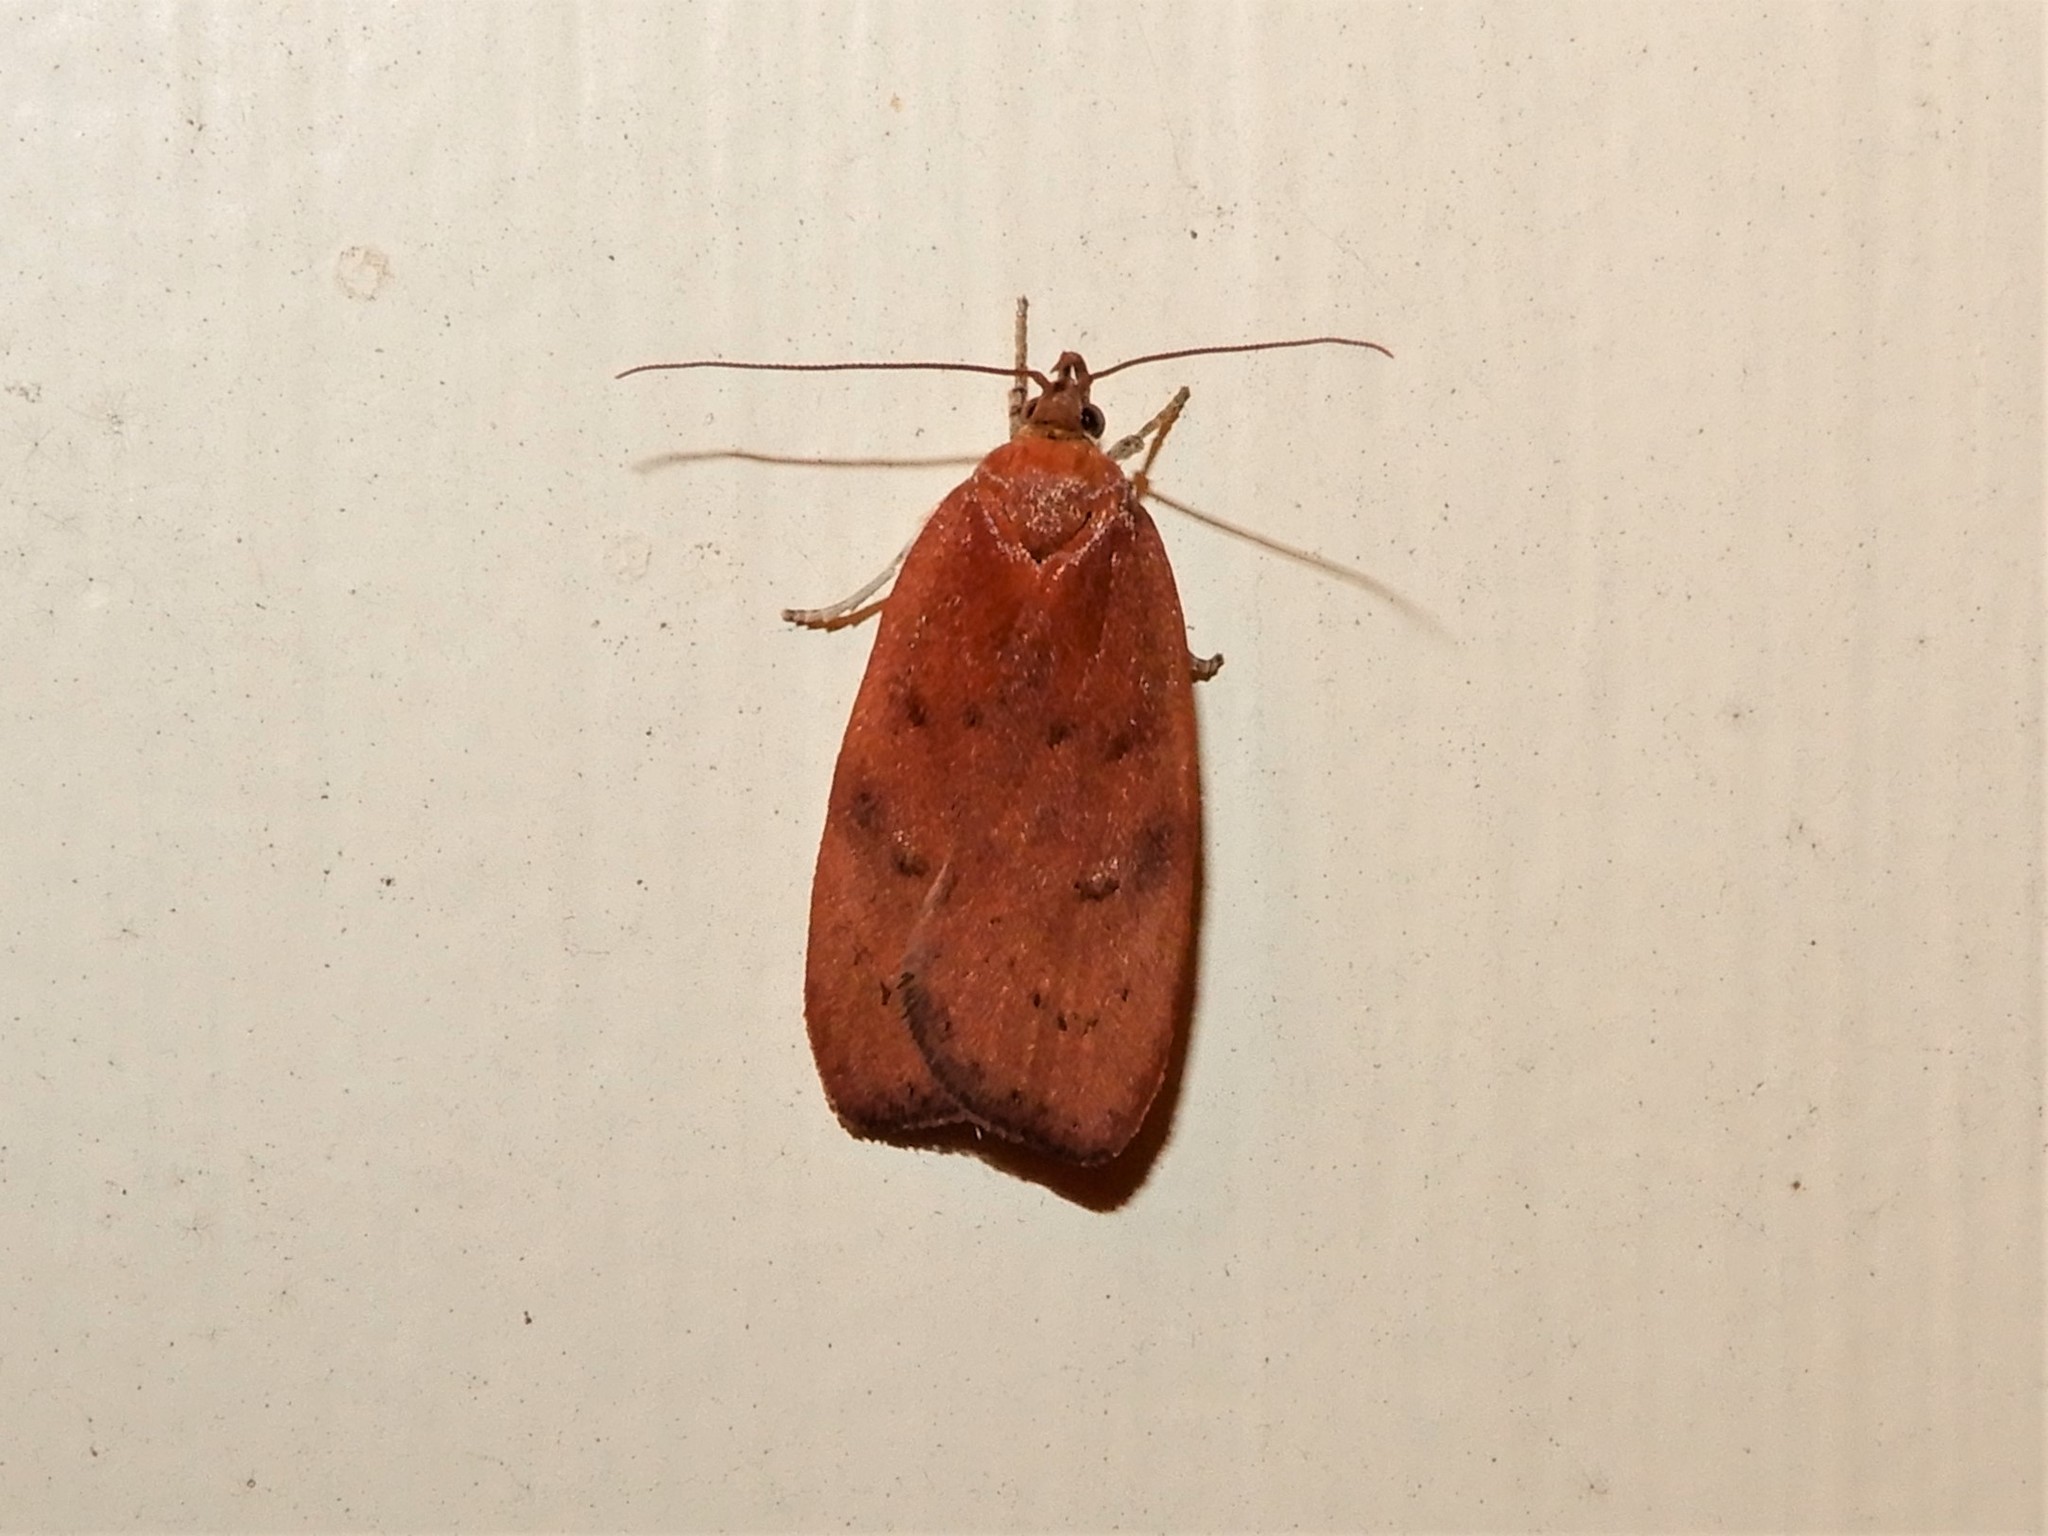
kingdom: Animalia
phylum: Arthropoda
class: Insecta
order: Lepidoptera
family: Depressariidae
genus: Phaeosaces
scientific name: Phaeosaces coarctatella
